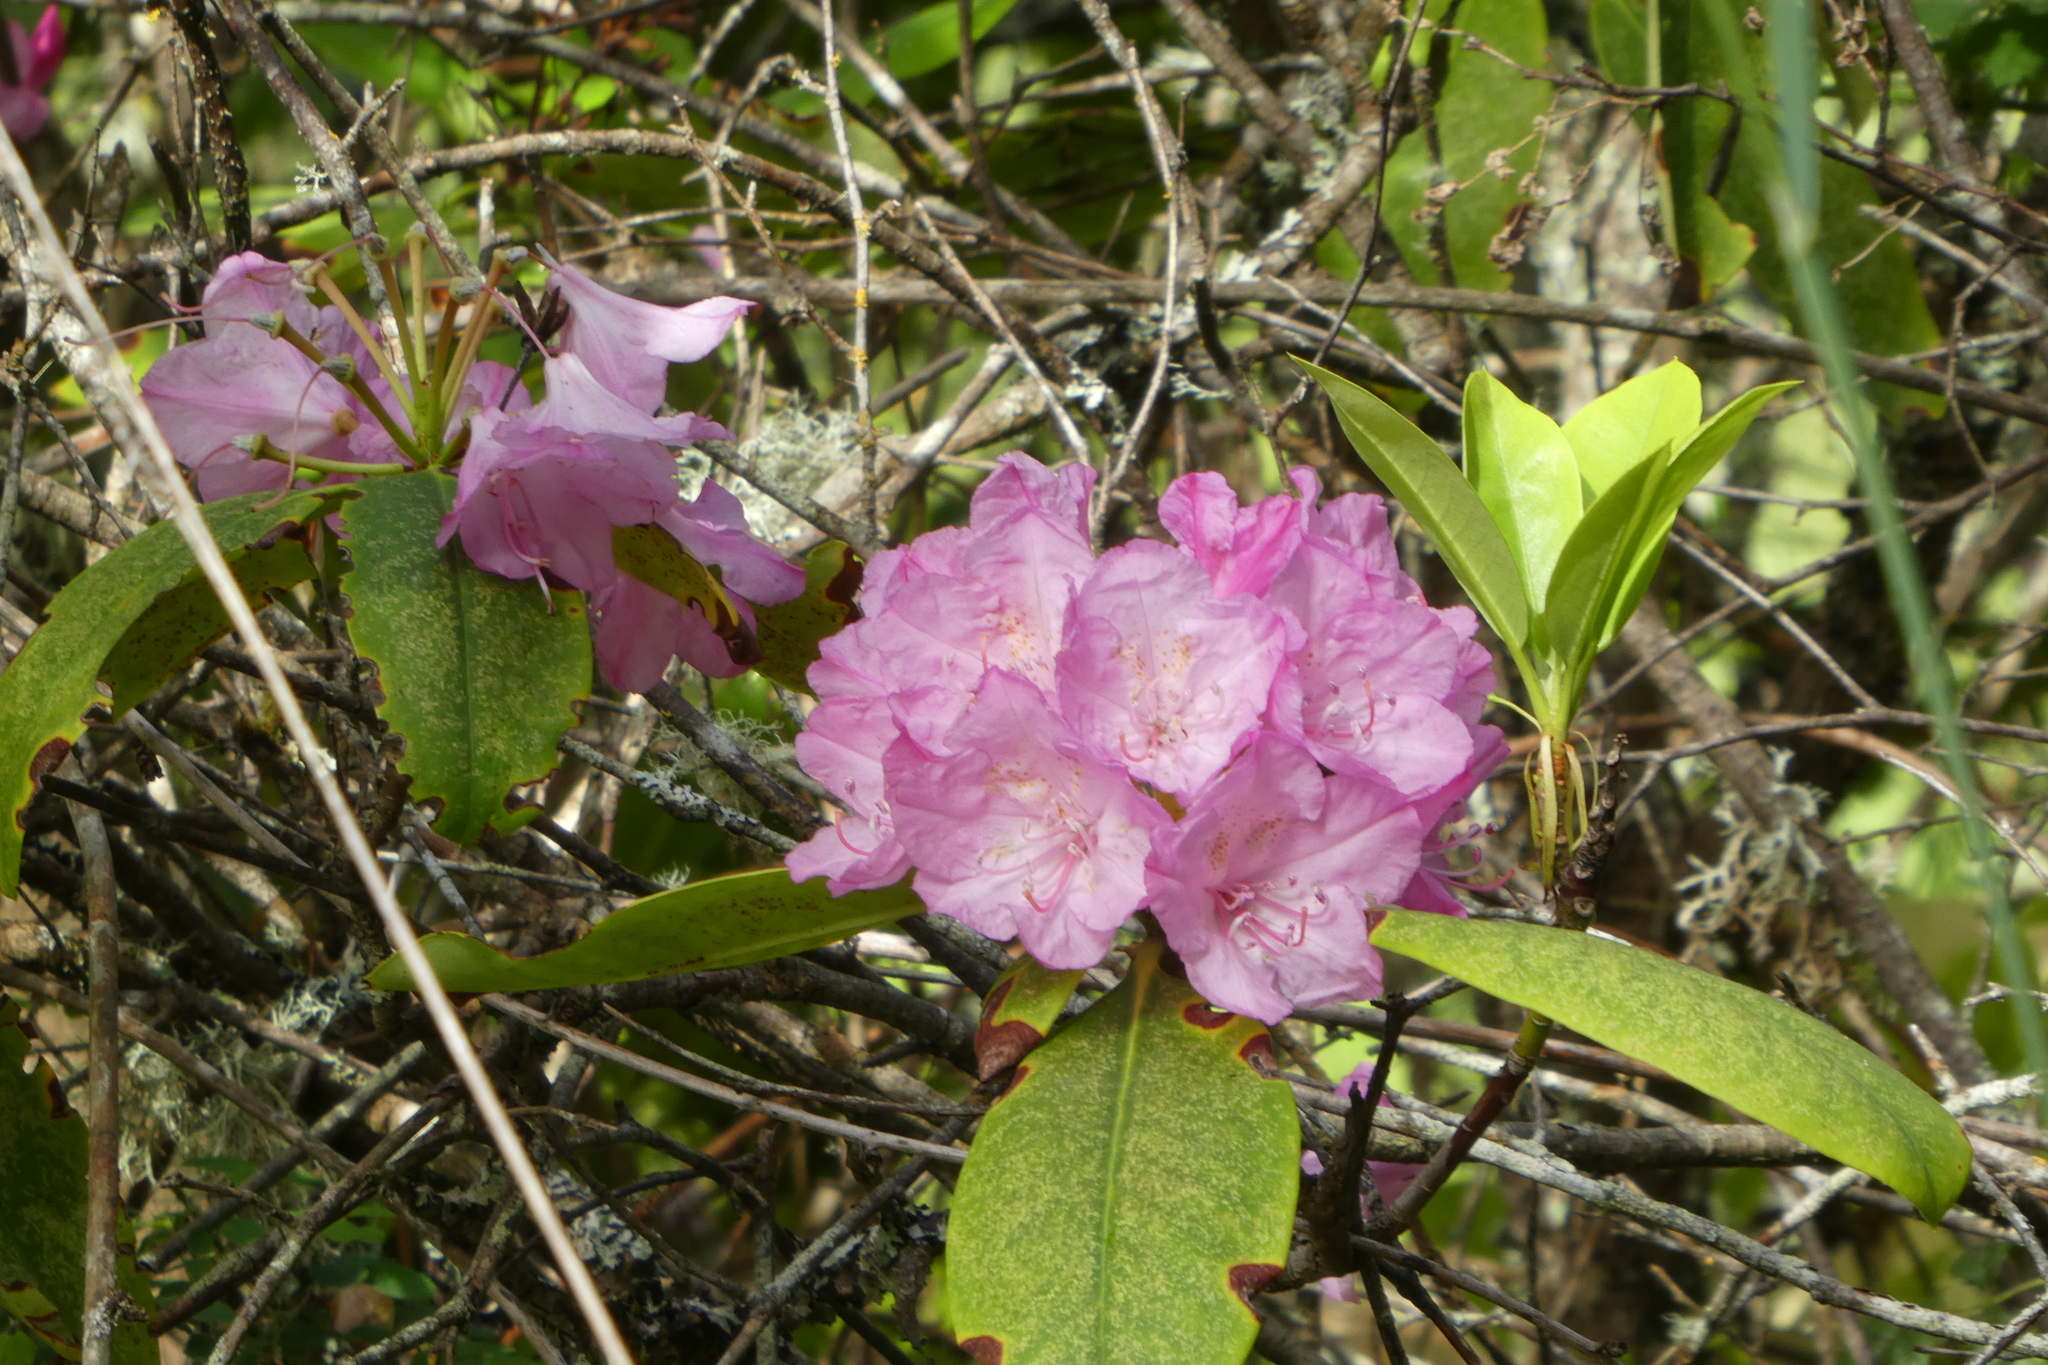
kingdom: Plantae
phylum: Tracheophyta
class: Magnoliopsida
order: Ericales
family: Ericaceae
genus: Rhododendron
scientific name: Rhododendron macrophyllum
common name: California rose bay
